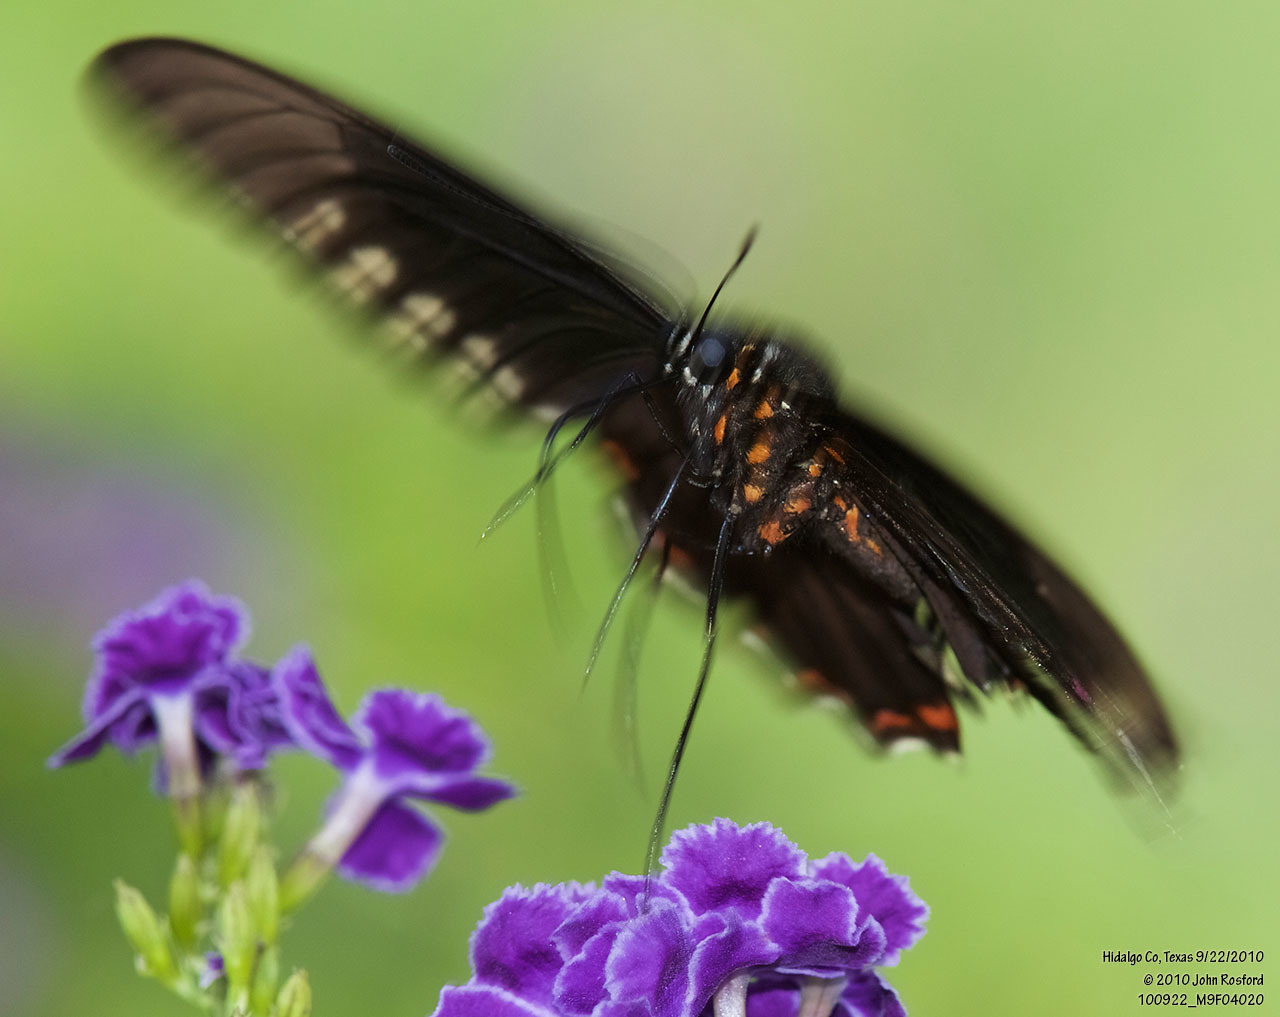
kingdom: Animalia
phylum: Arthropoda
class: Insecta
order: Lepidoptera
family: Papilionidae
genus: Battus
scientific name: Battus polydamas
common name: Polydamas swallowtail
